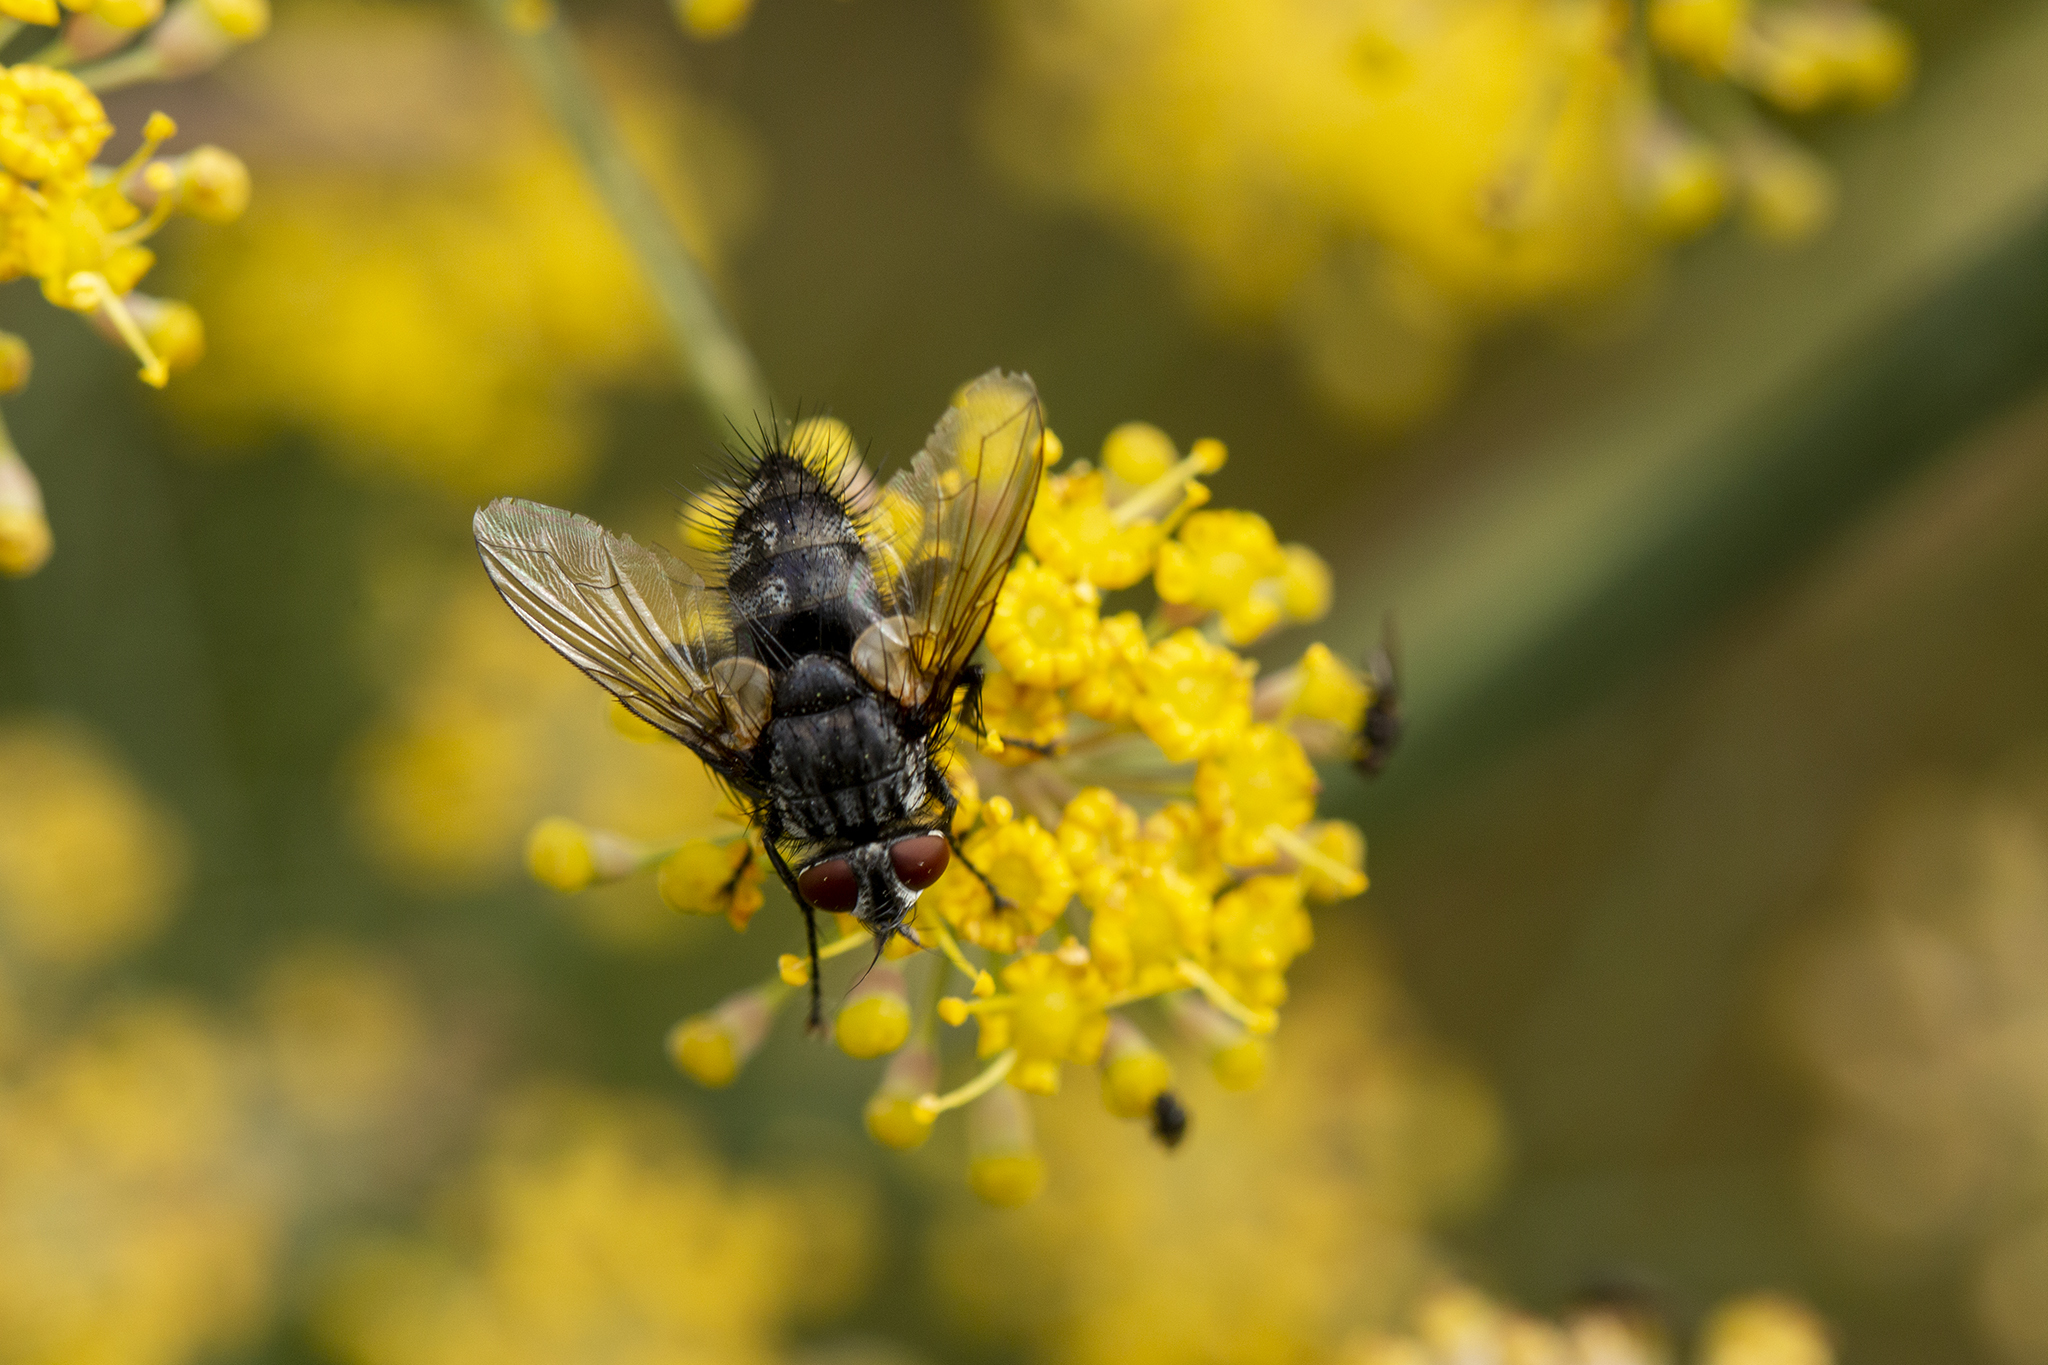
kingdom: Animalia
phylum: Arthropoda
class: Insecta
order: Diptera
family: Tachinidae
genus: Blondelia
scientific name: Blondelia nigripes
